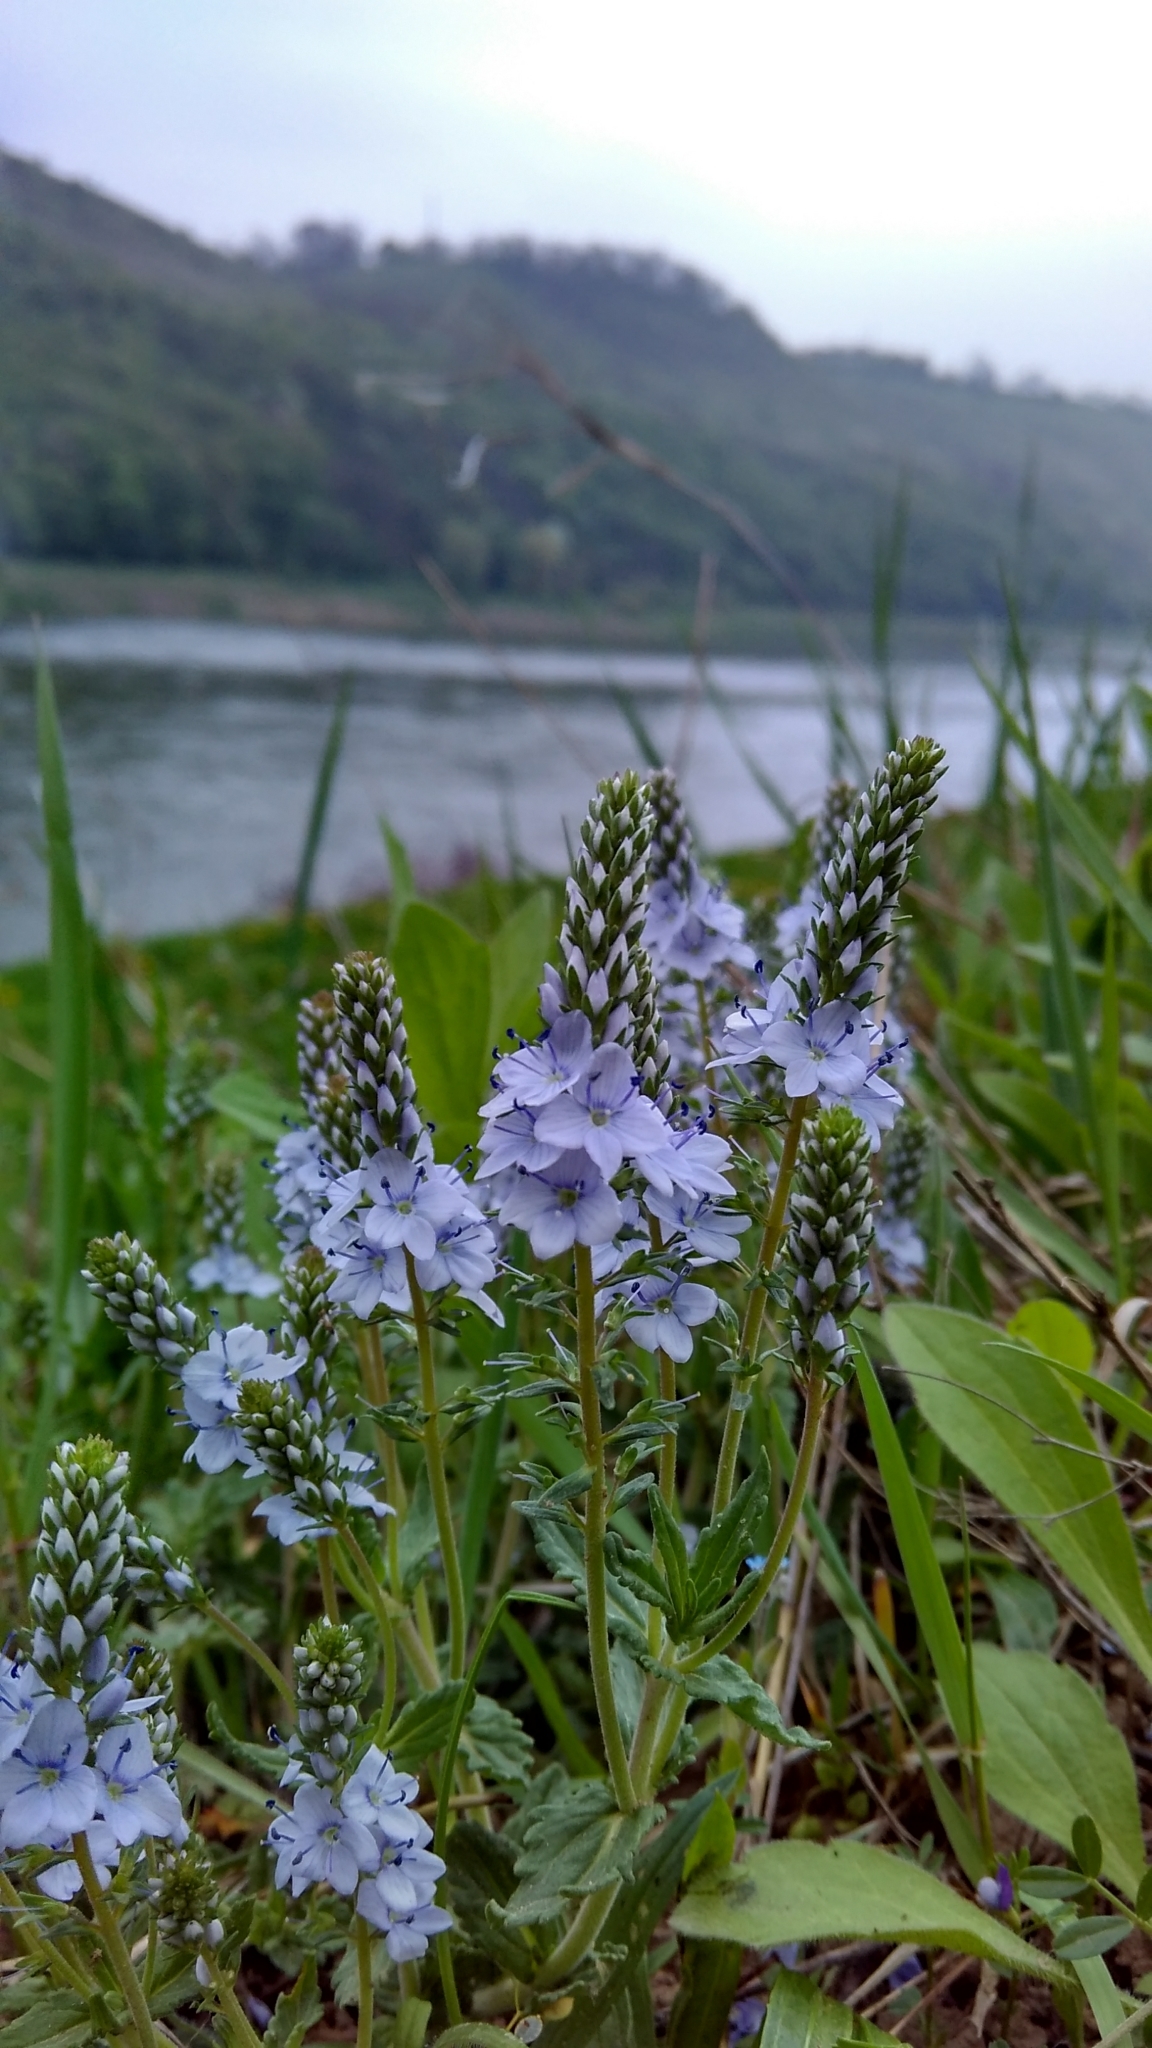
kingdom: Plantae
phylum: Tracheophyta
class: Magnoliopsida
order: Lamiales
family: Plantaginaceae
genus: Veronica
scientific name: Veronica prostrata
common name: Prostrate speedwell
